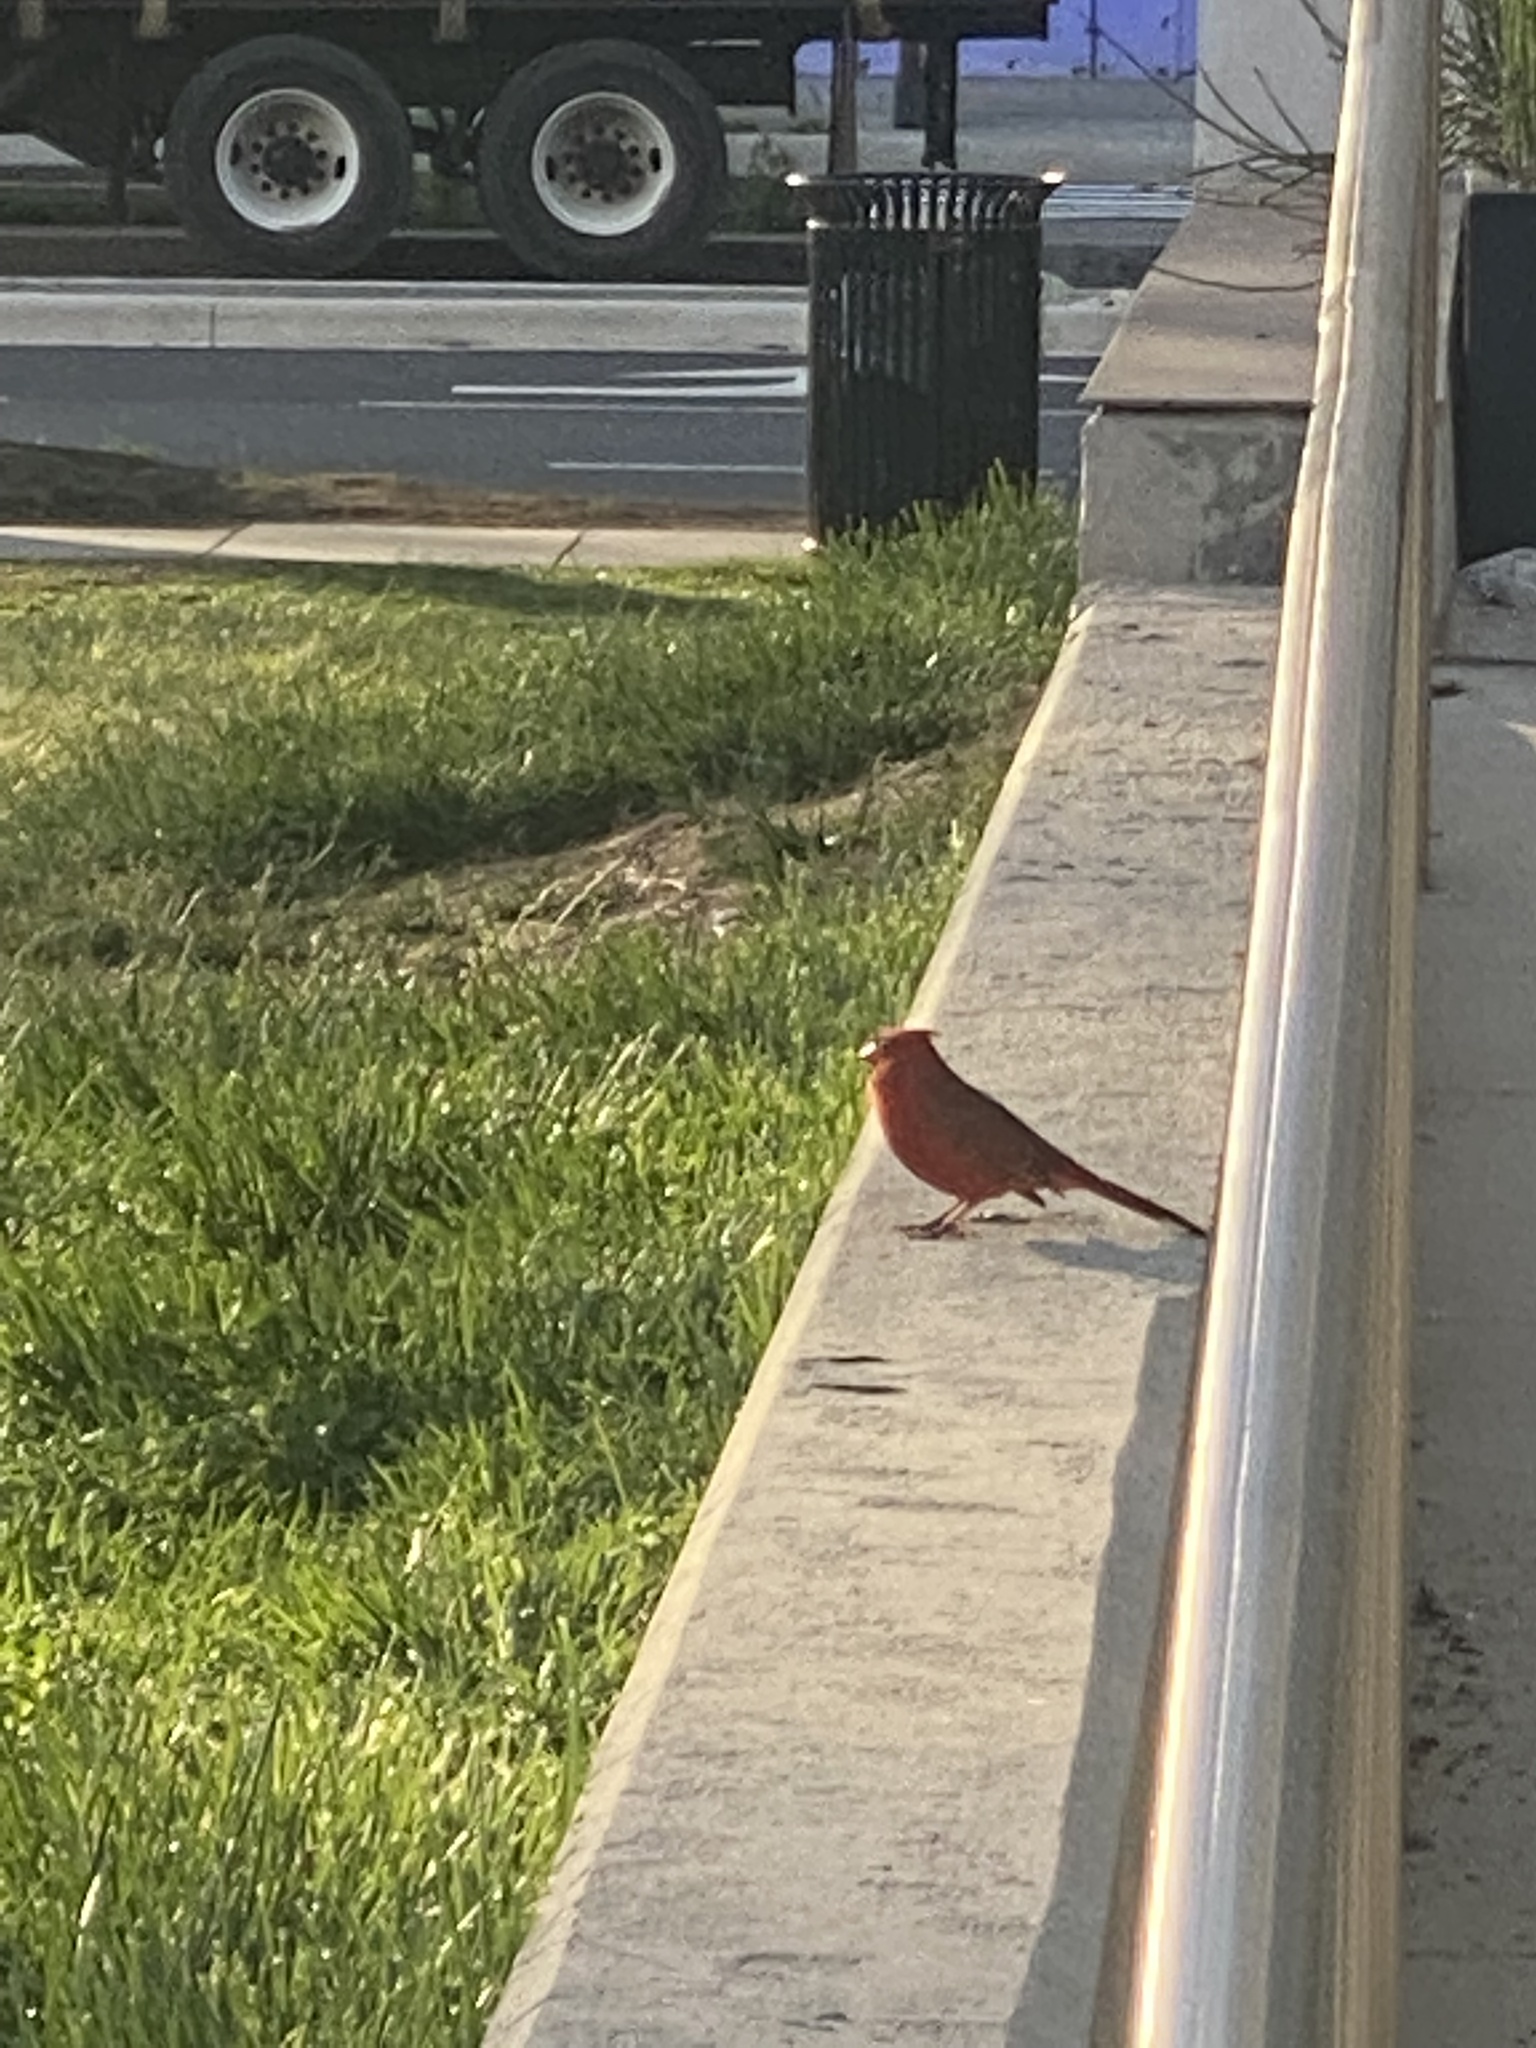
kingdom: Animalia
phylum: Chordata
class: Aves
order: Passeriformes
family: Cardinalidae
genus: Cardinalis
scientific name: Cardinalis cardinalis
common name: Northern cardinal
